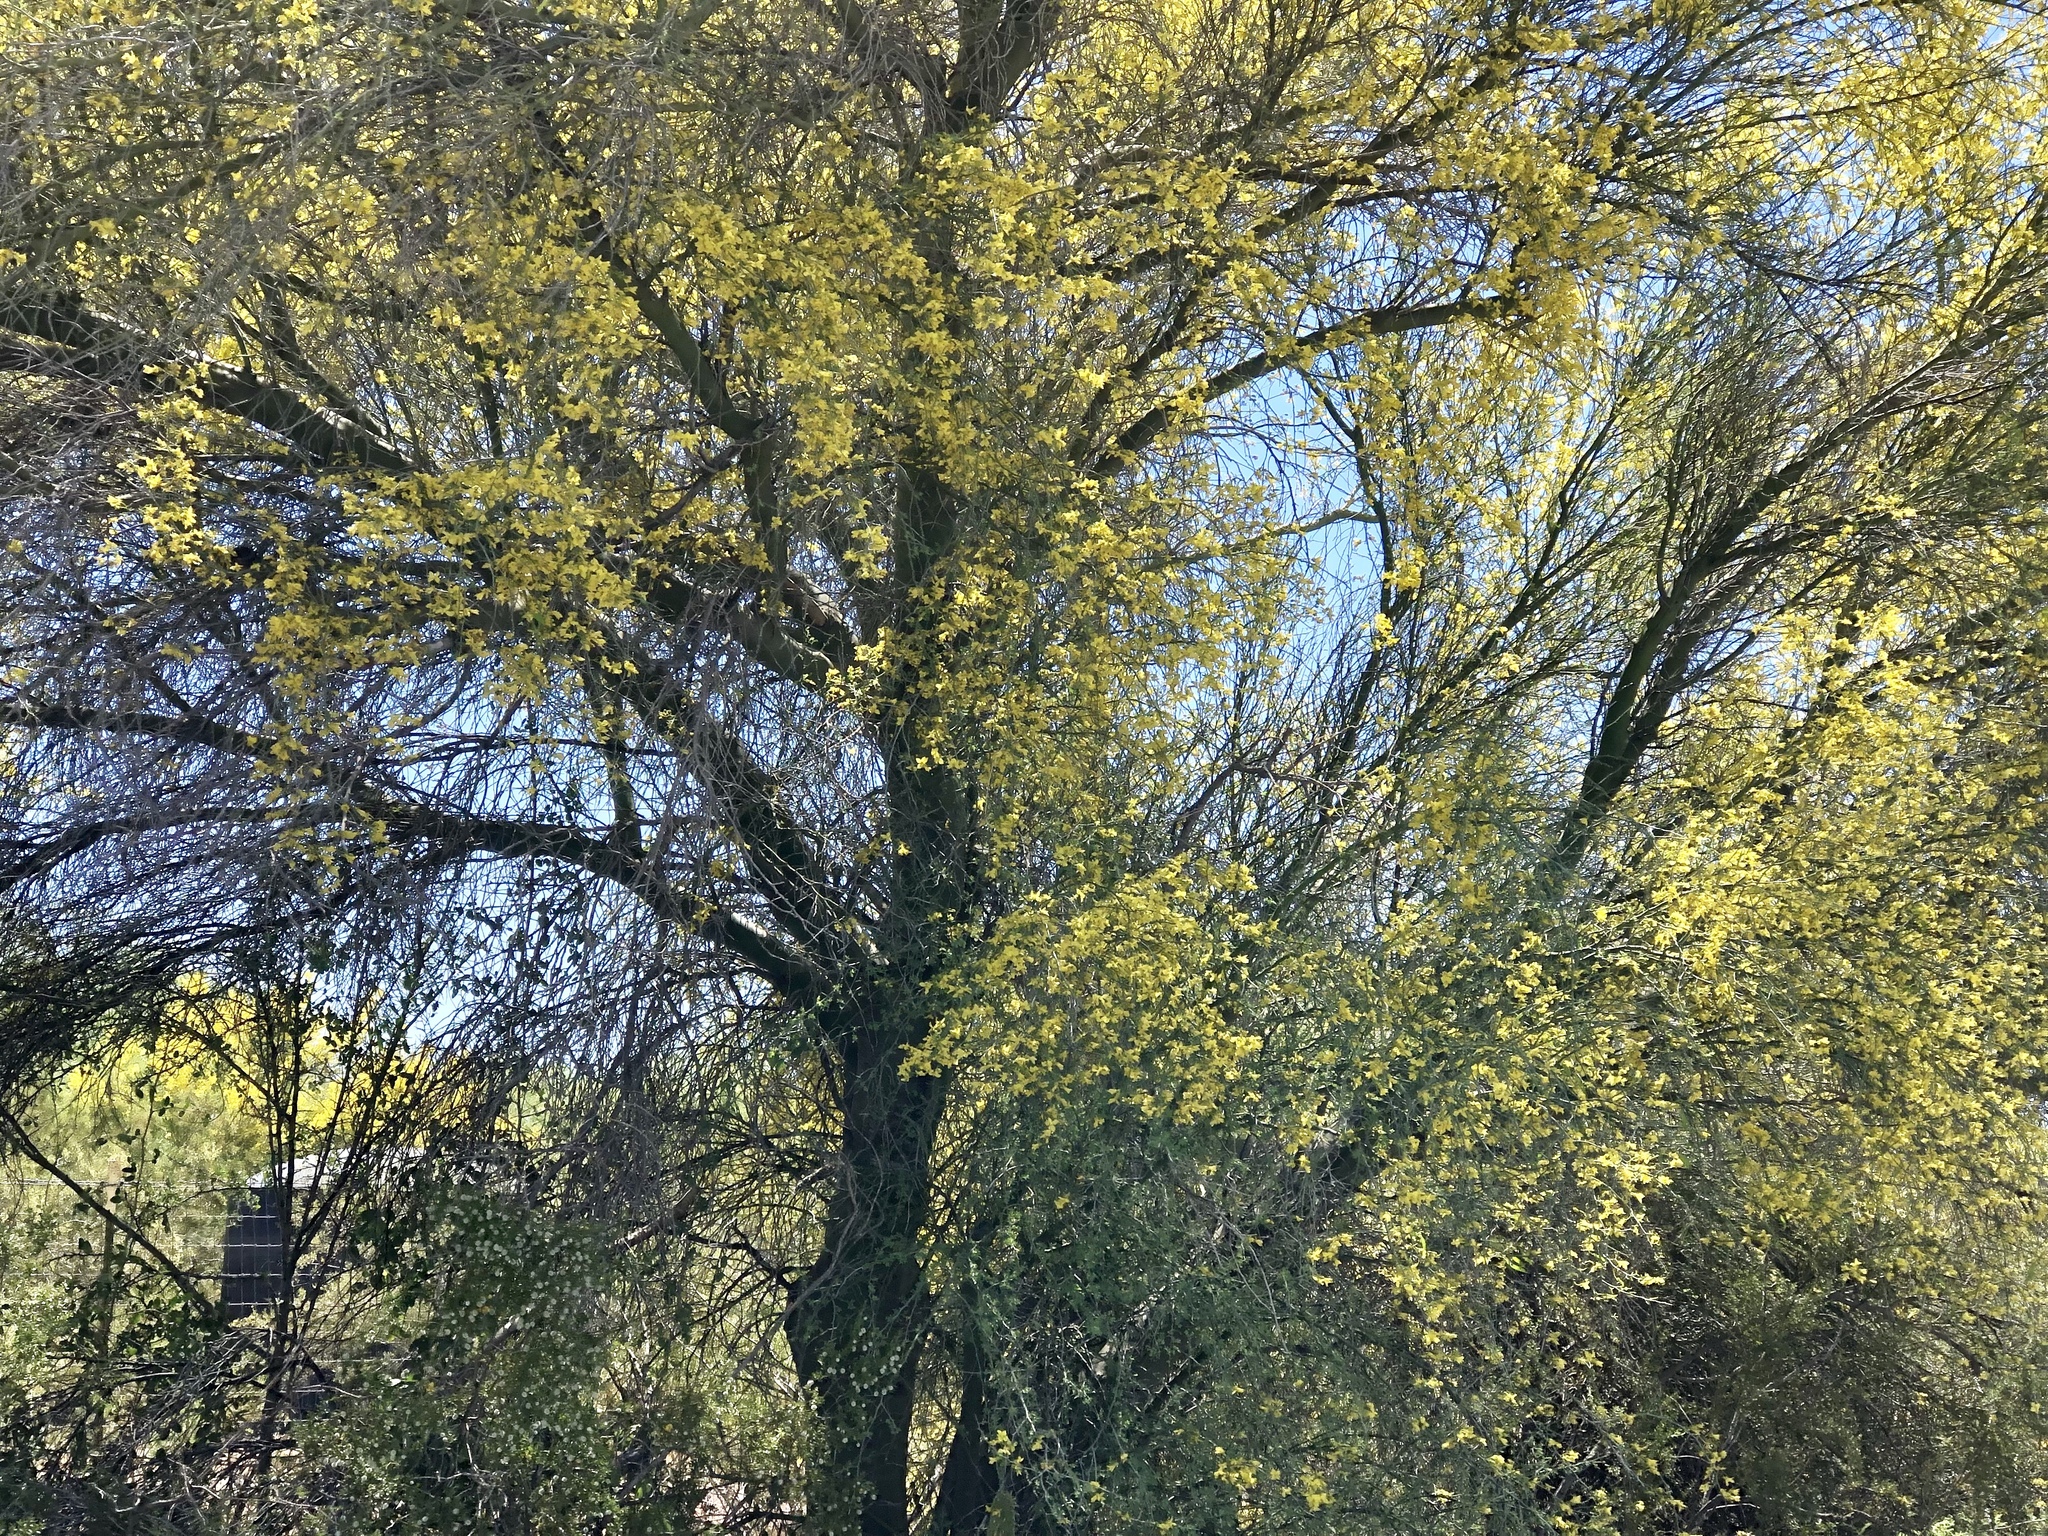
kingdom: Plantae
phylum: Tracheophyta
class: Magnoliopsida
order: Fabales
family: Fabaceae
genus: Parkinsonia
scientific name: Parkinsonia florida
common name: Blue paloverde
